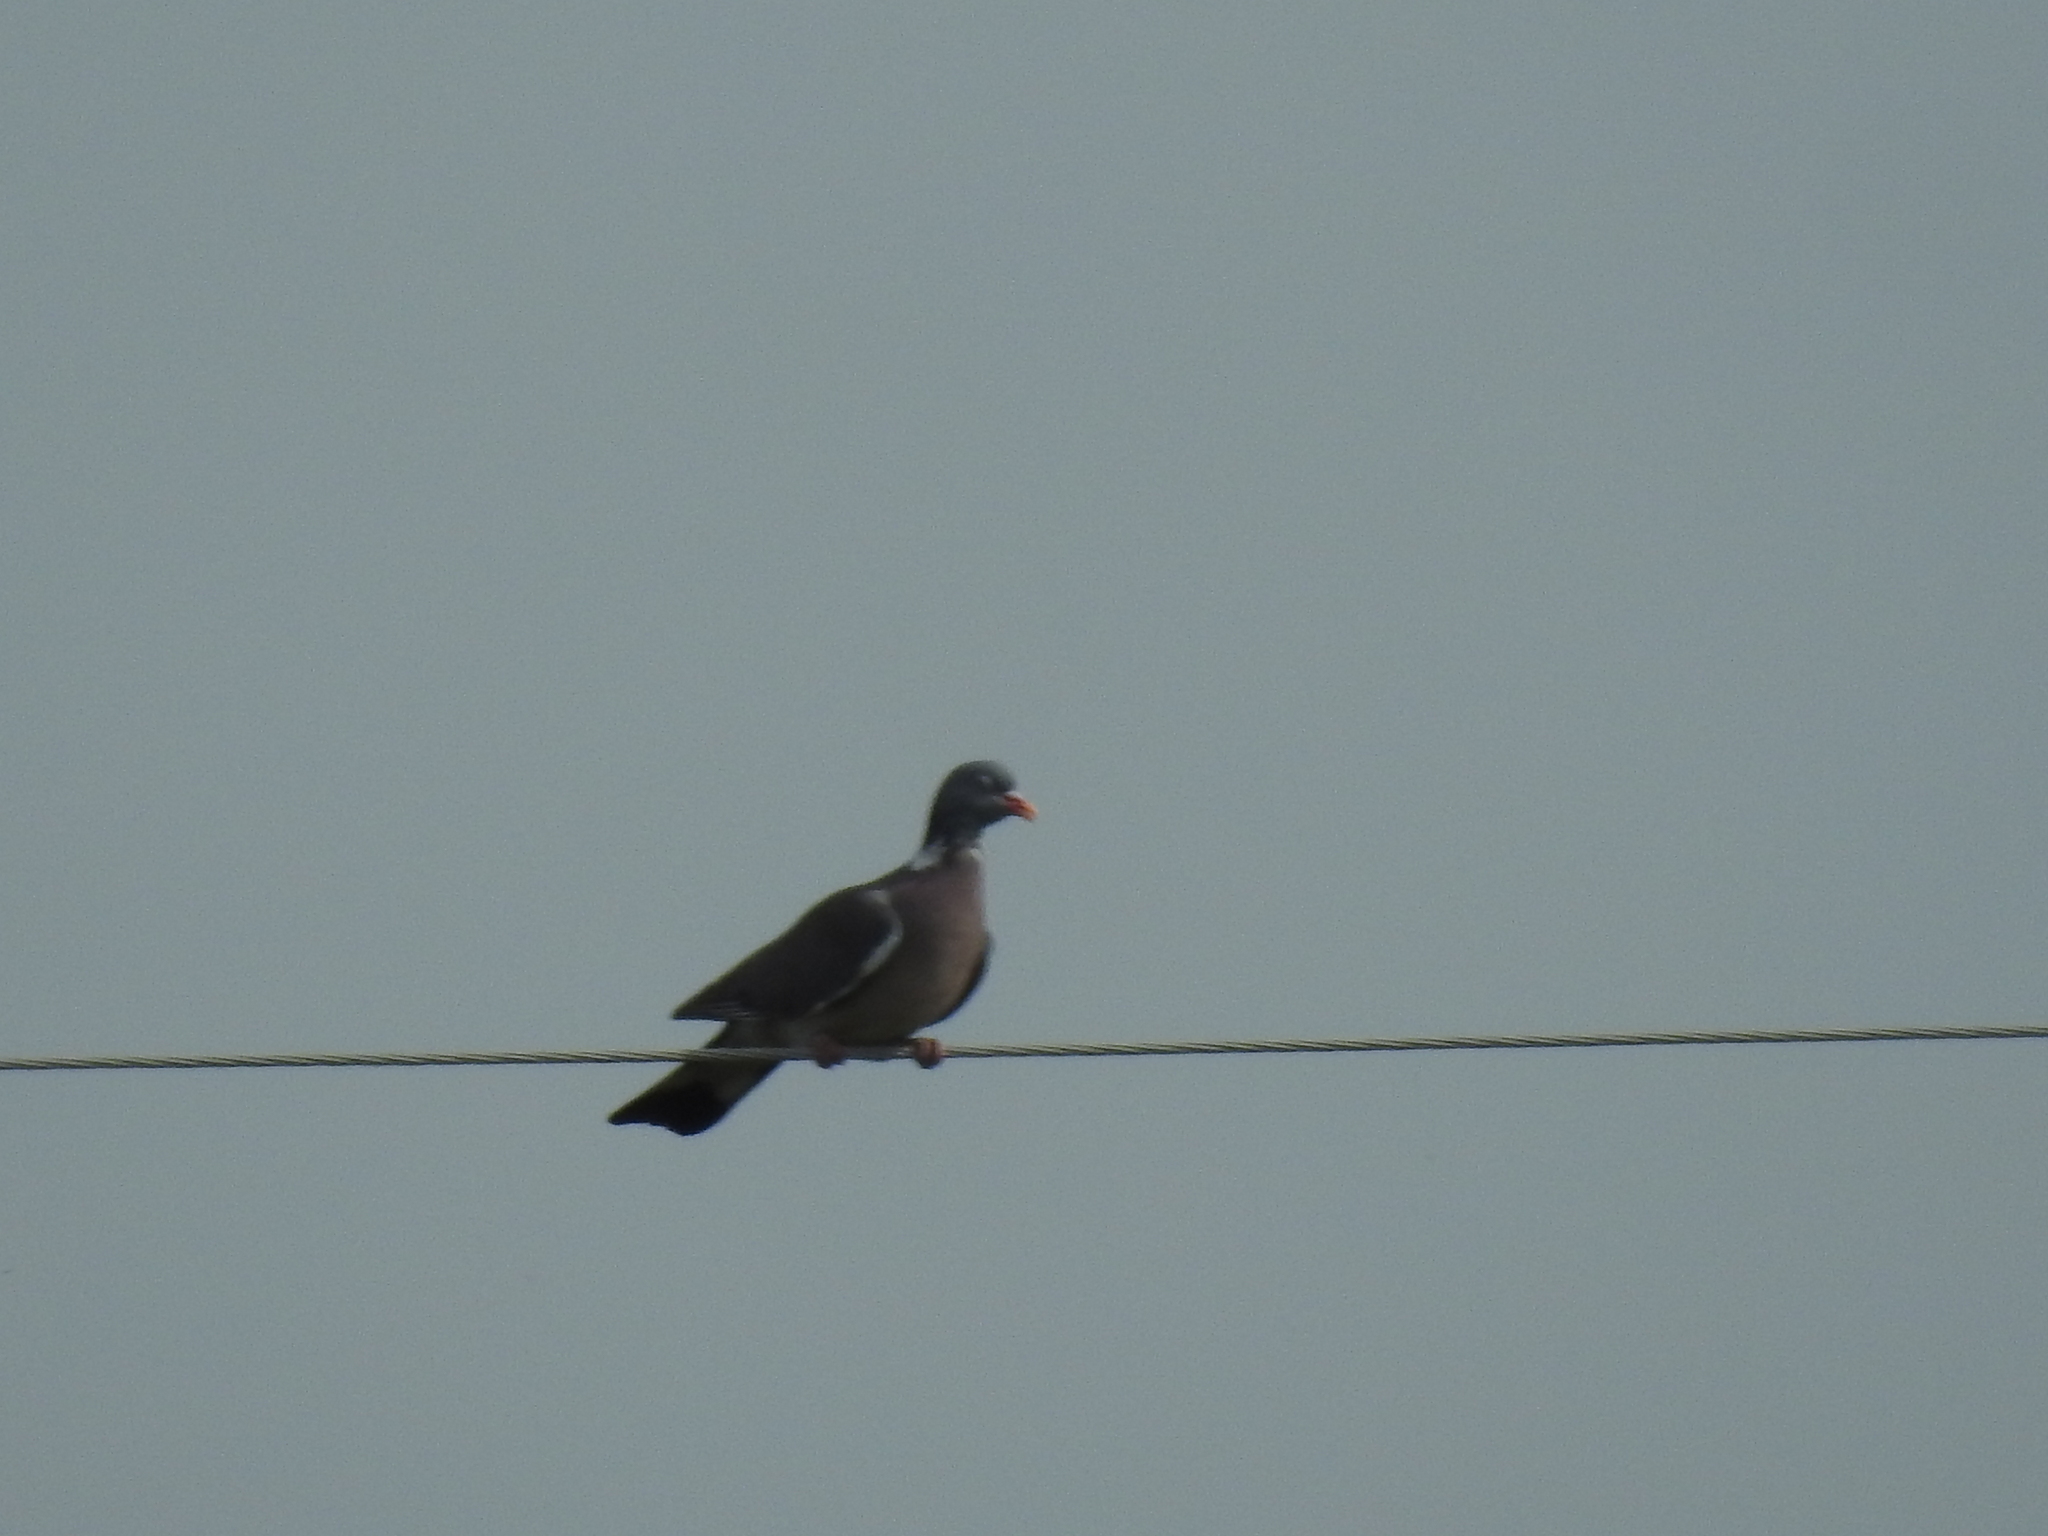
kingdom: Animalia
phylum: Chordata
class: Aves
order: Columbiformes
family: Columbidae
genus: Columba
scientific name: Columba palumbus
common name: Common wood pigeon
